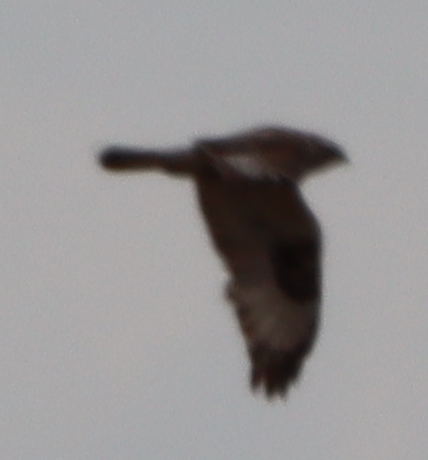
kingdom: Animalia
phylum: Chordata
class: Aves
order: Accipitriformes
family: Accipitridae
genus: Buteo
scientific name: Buteo lagopus
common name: Rough-legged buzzard
